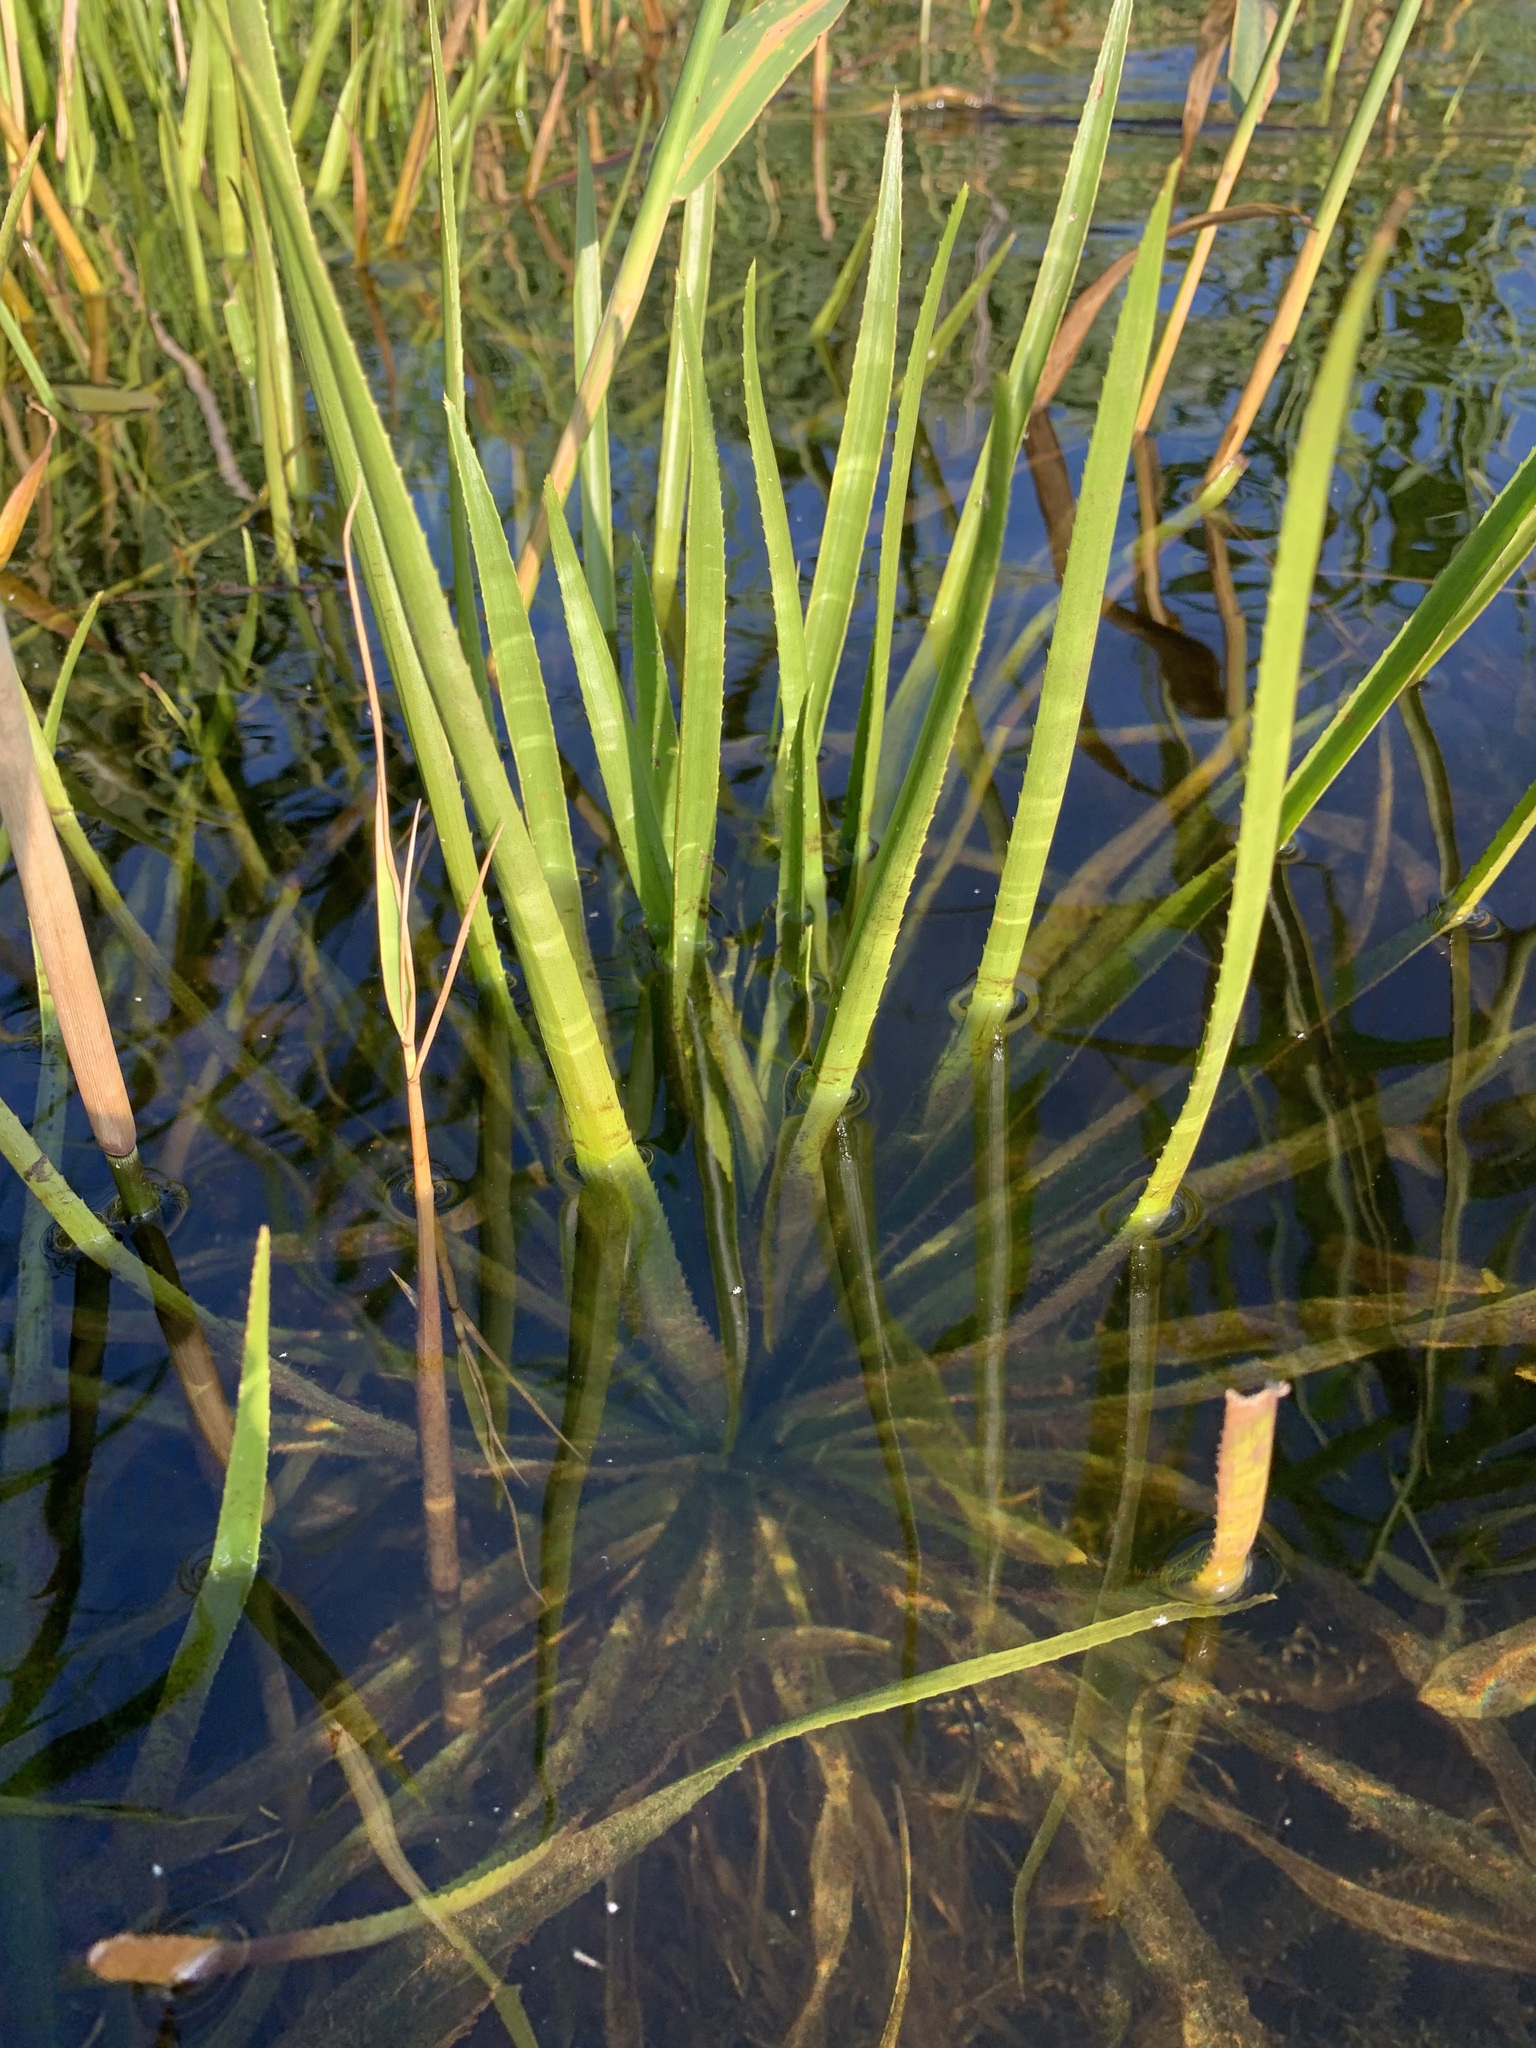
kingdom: Plantae
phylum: Tracheophyta
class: Liliopsida
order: Alismatales
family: Hydrocharitaceae
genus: Stratiotes
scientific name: Stratiotes aloides
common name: Water-soldier
